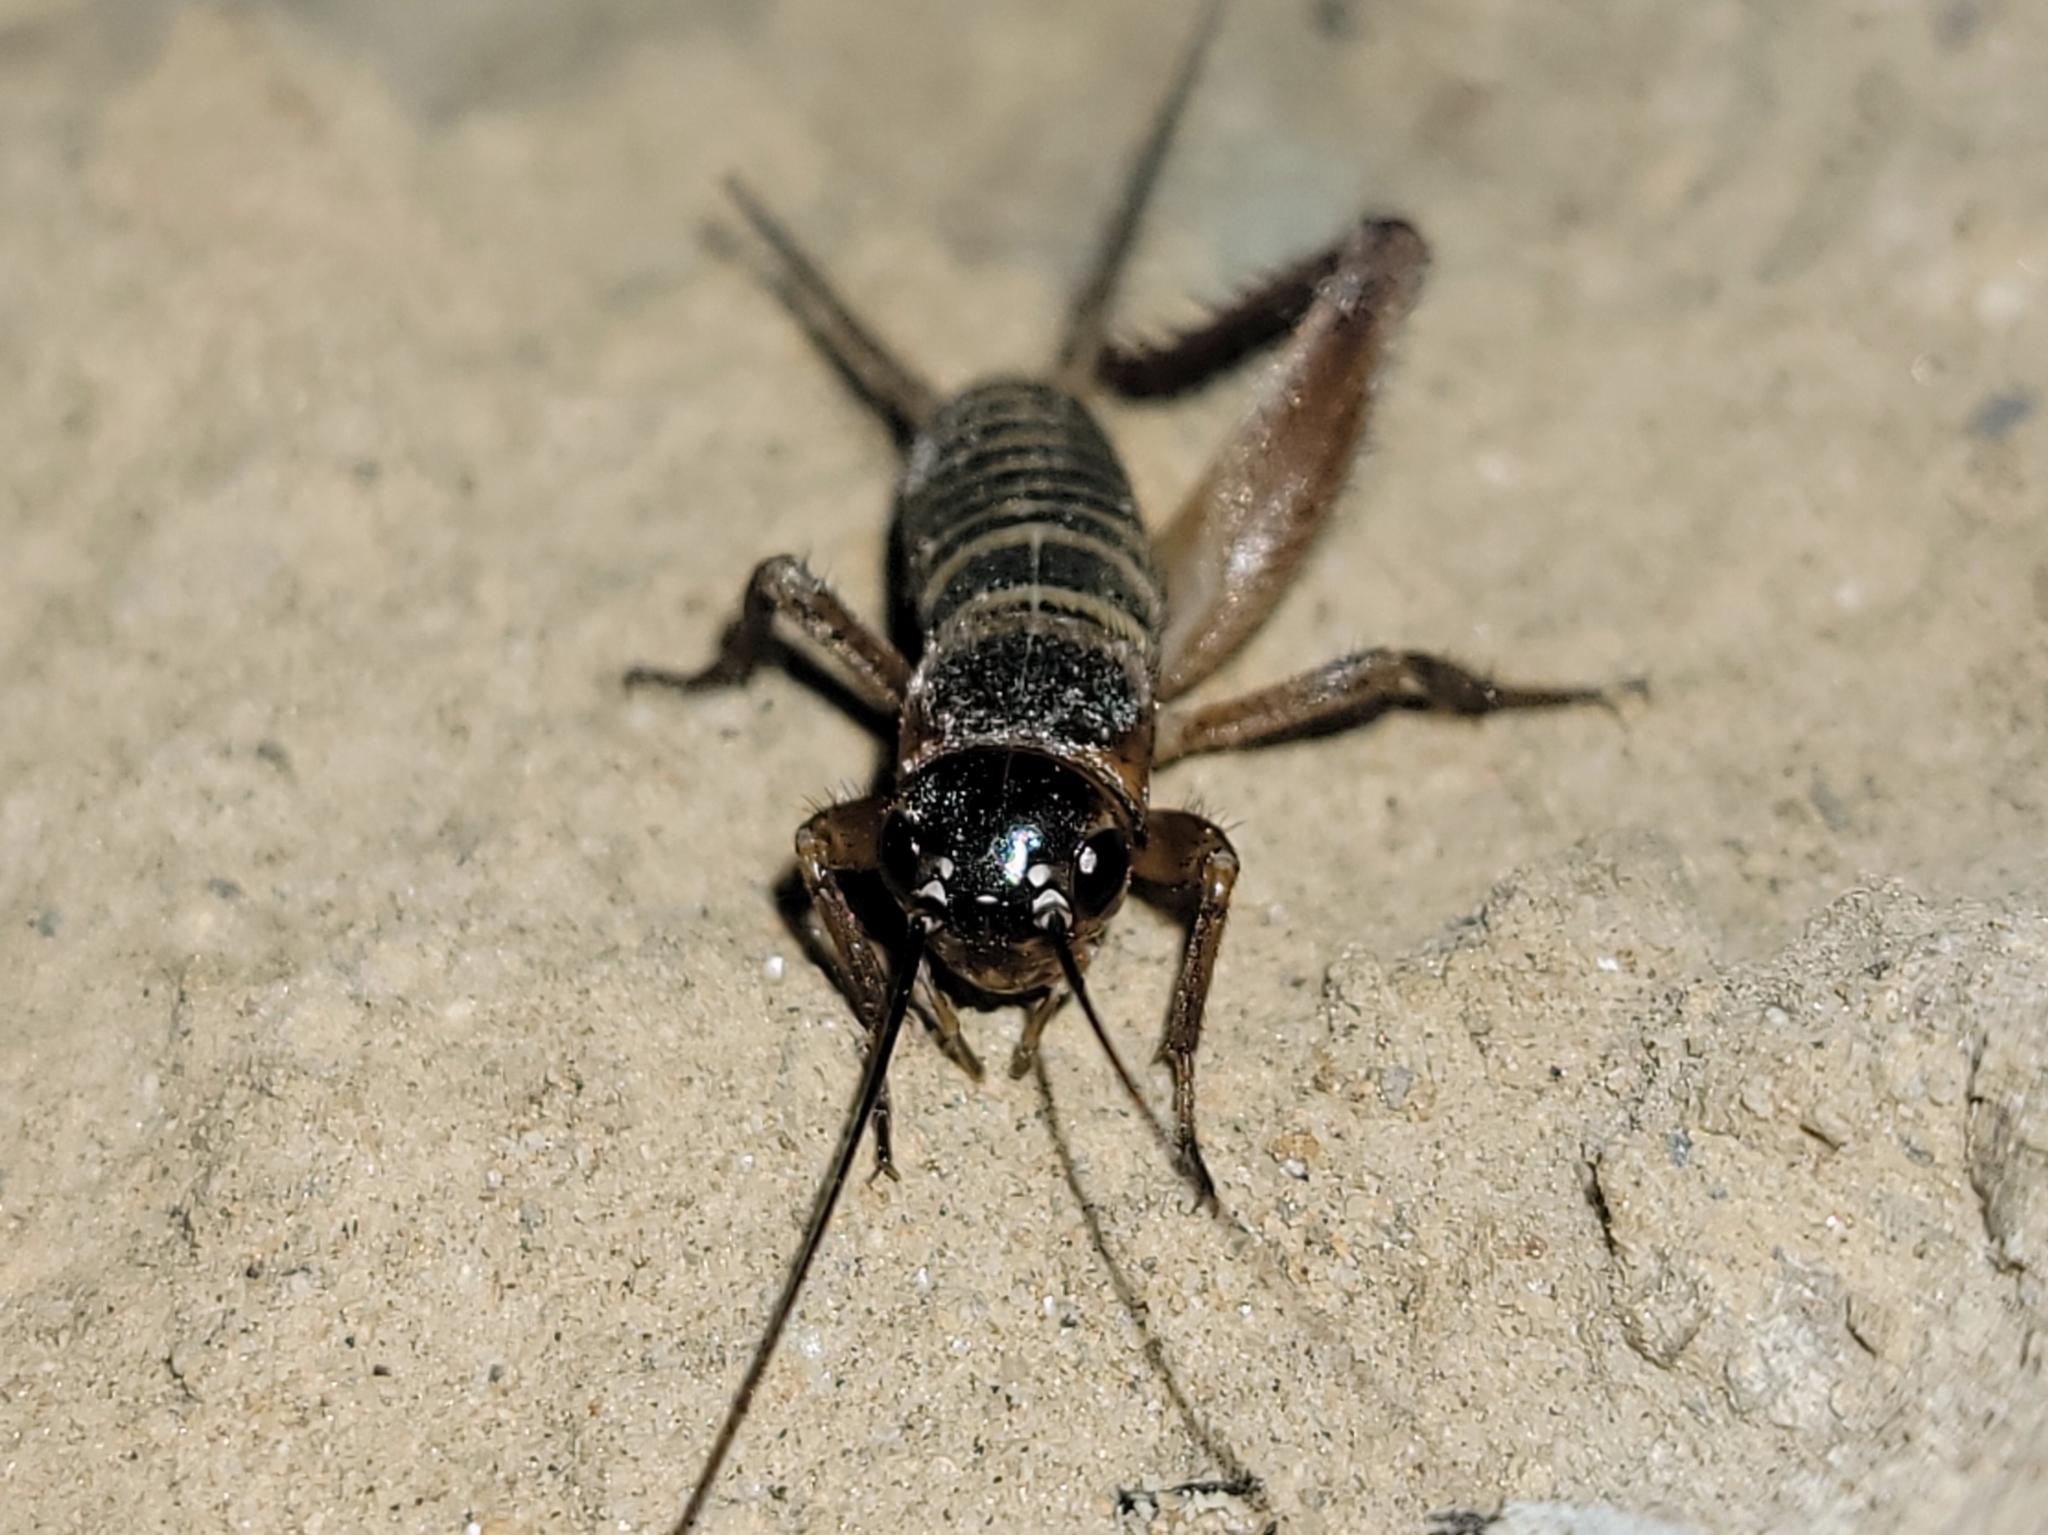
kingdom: Animalia
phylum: Arthropoda
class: Insecta
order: Orthoptera
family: Gryllidae
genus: Gryllus
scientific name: Gryllus
